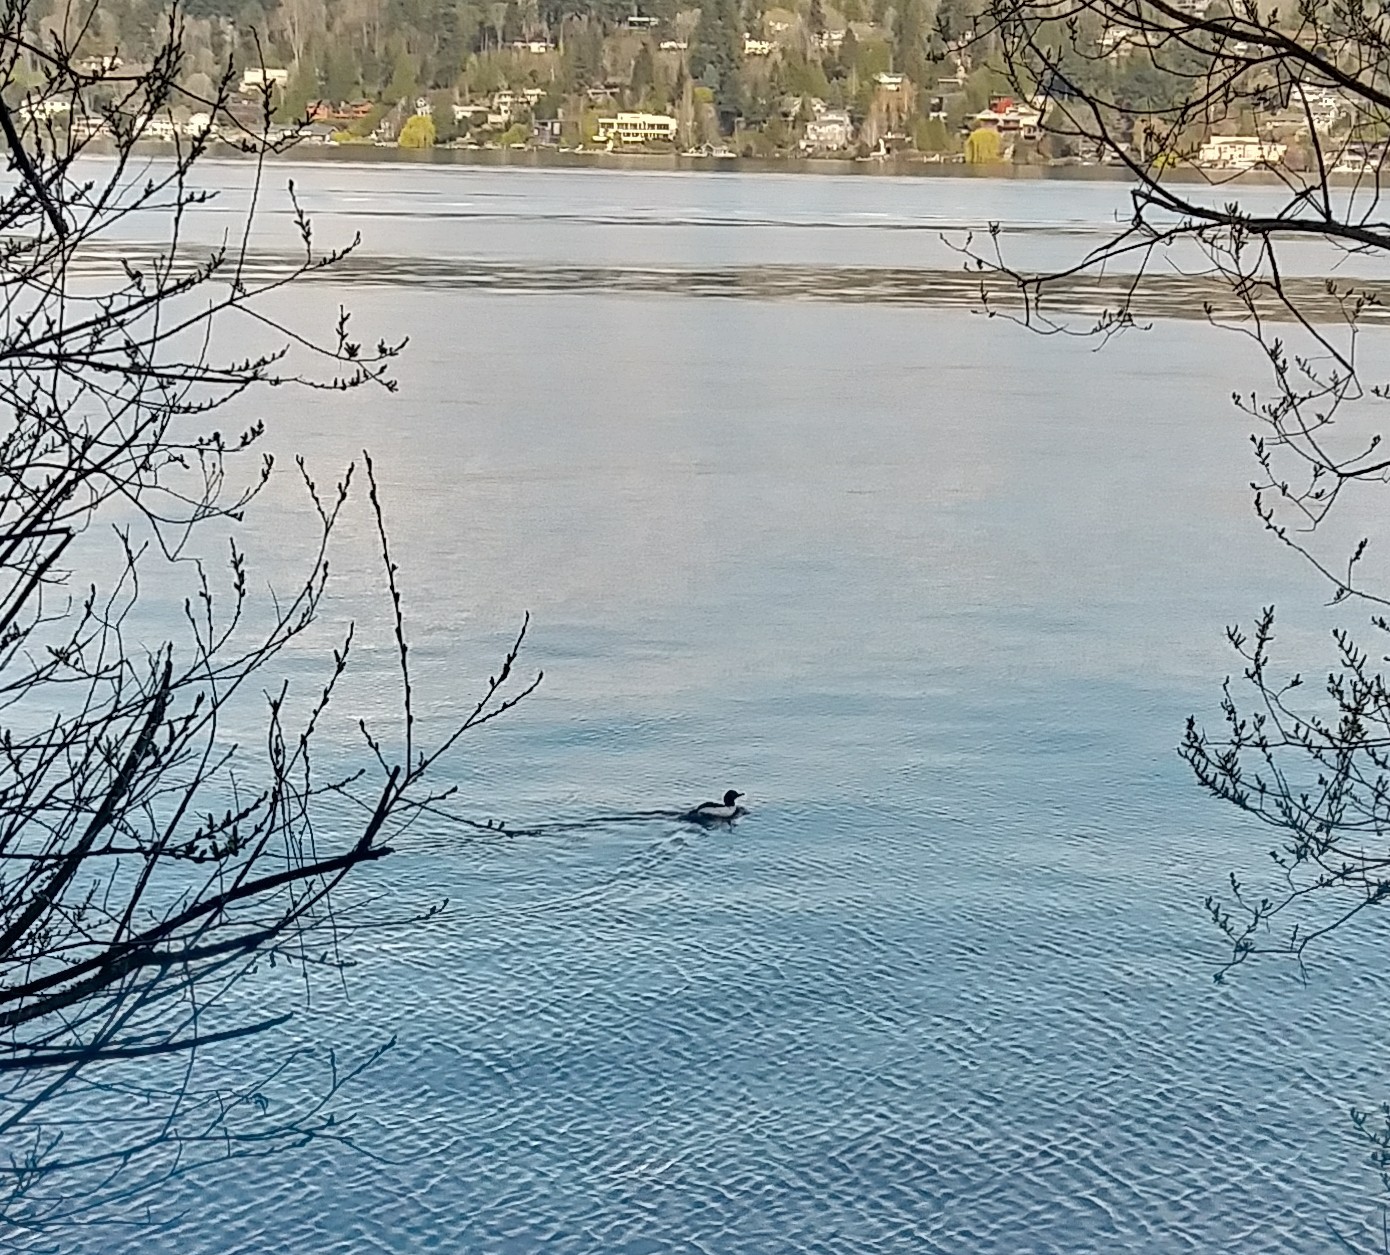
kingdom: Animalia
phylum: Chordata
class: Aves
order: Anseriformes
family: Anatidae
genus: Mergus
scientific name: Mergus merganser
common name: Common merganser
